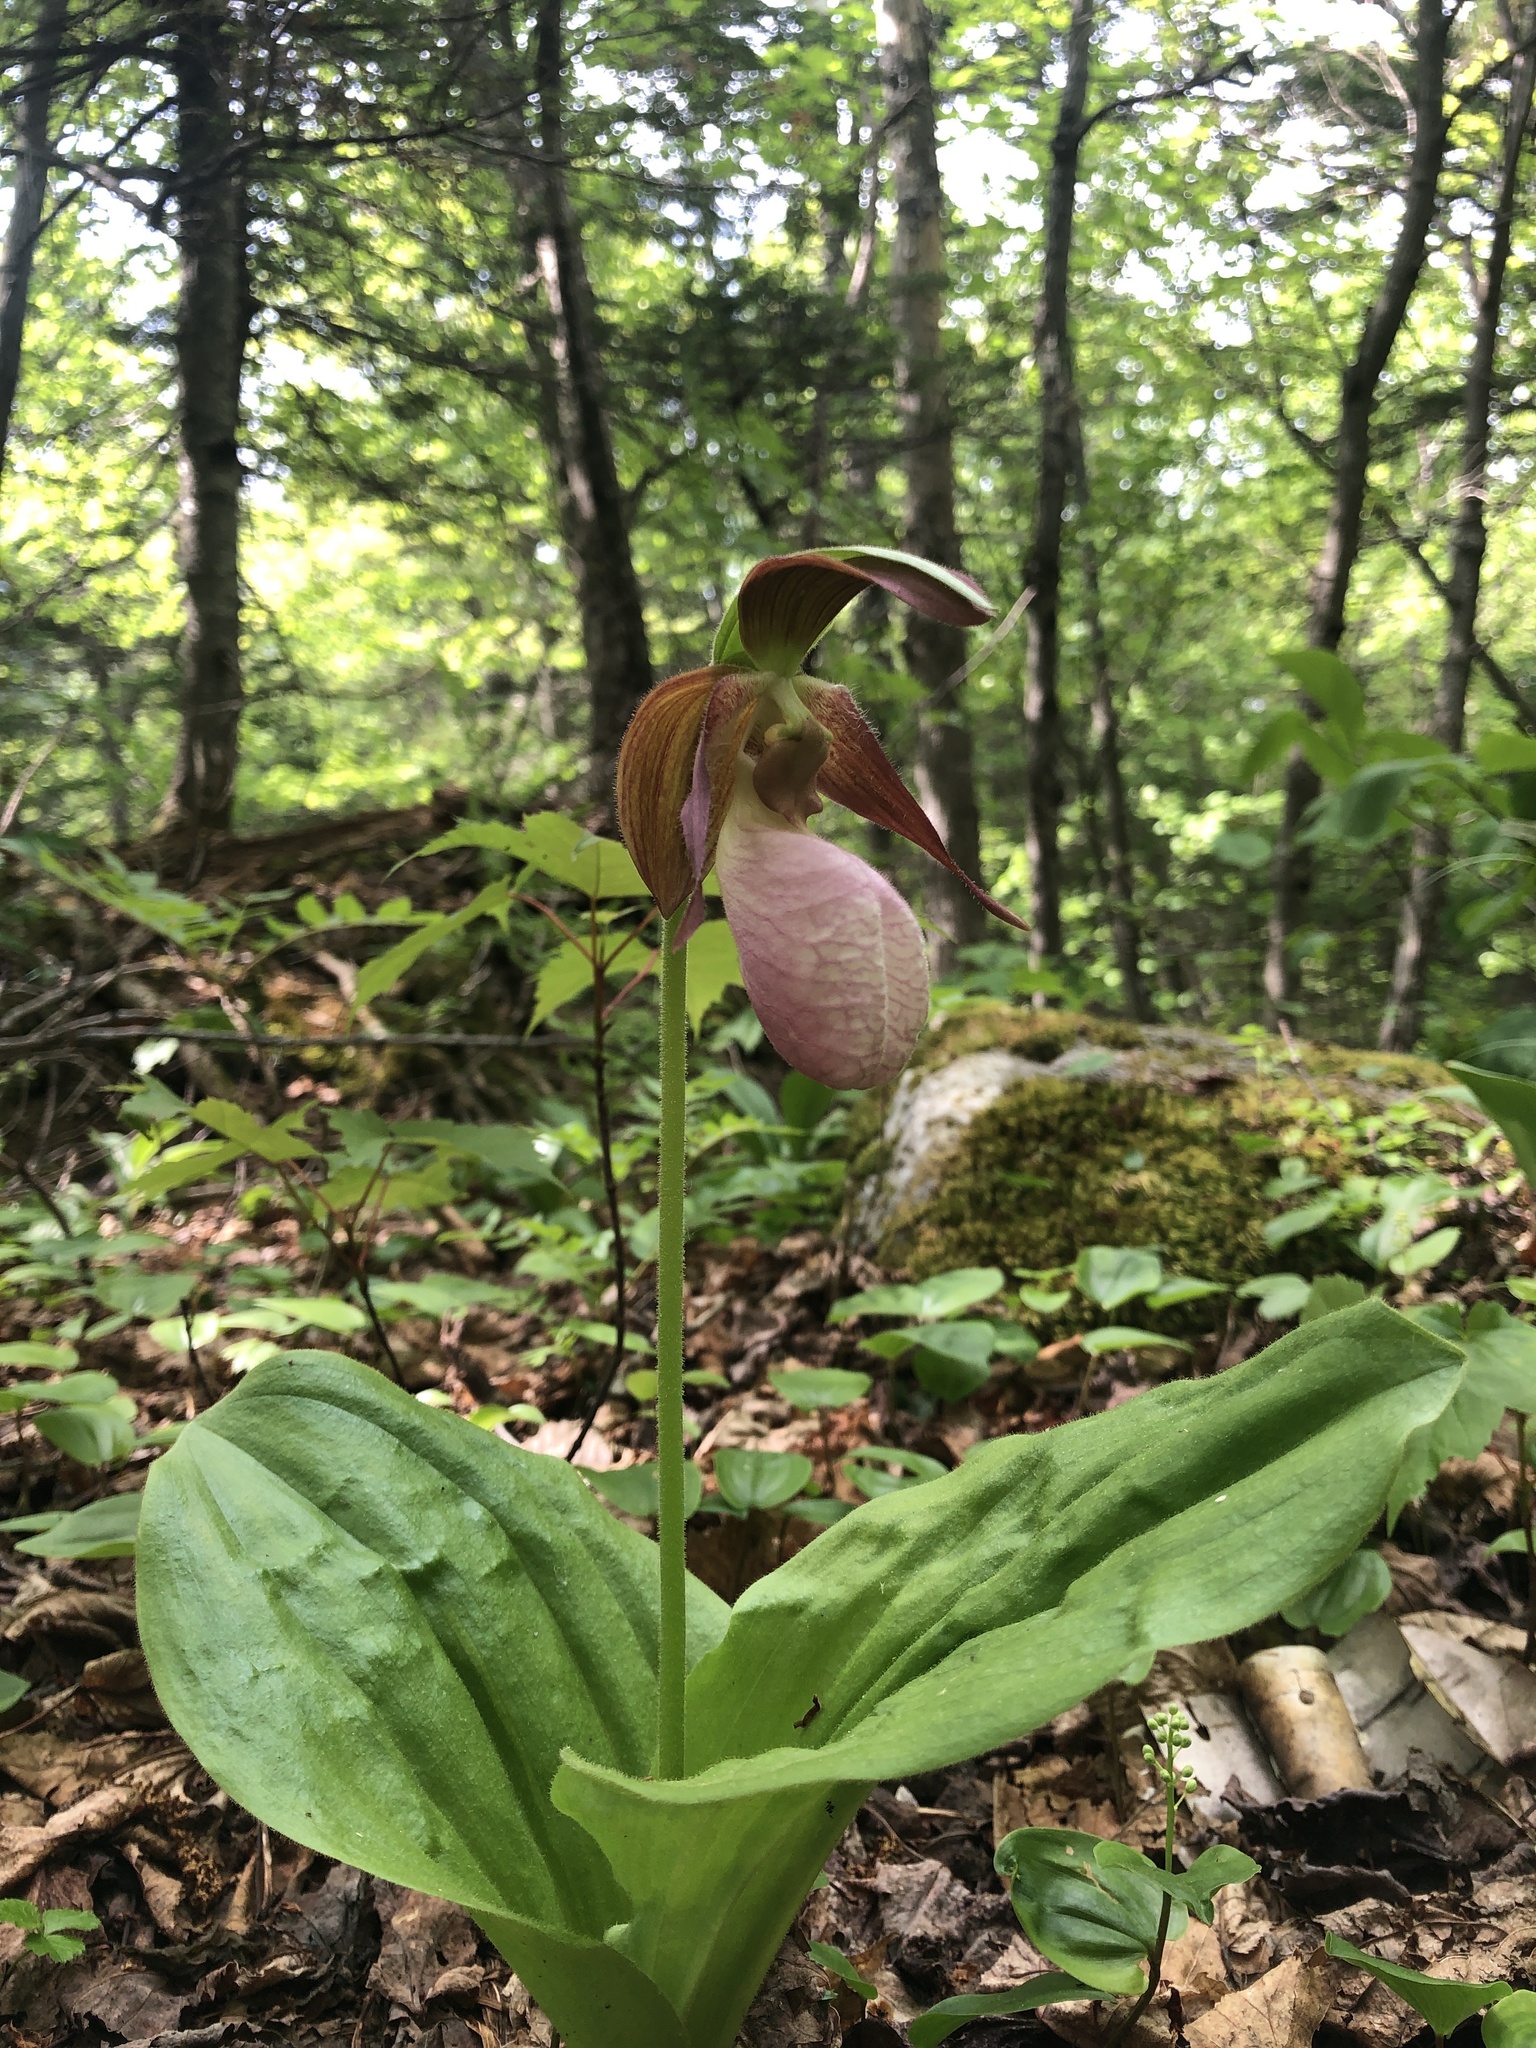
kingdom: Plantae
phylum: Tracheophyta
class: Liliopsida
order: Asparagales
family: Orchidaceae
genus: Cypripedium
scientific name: Cypripedium acaule
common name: Pink lady's-slipper
